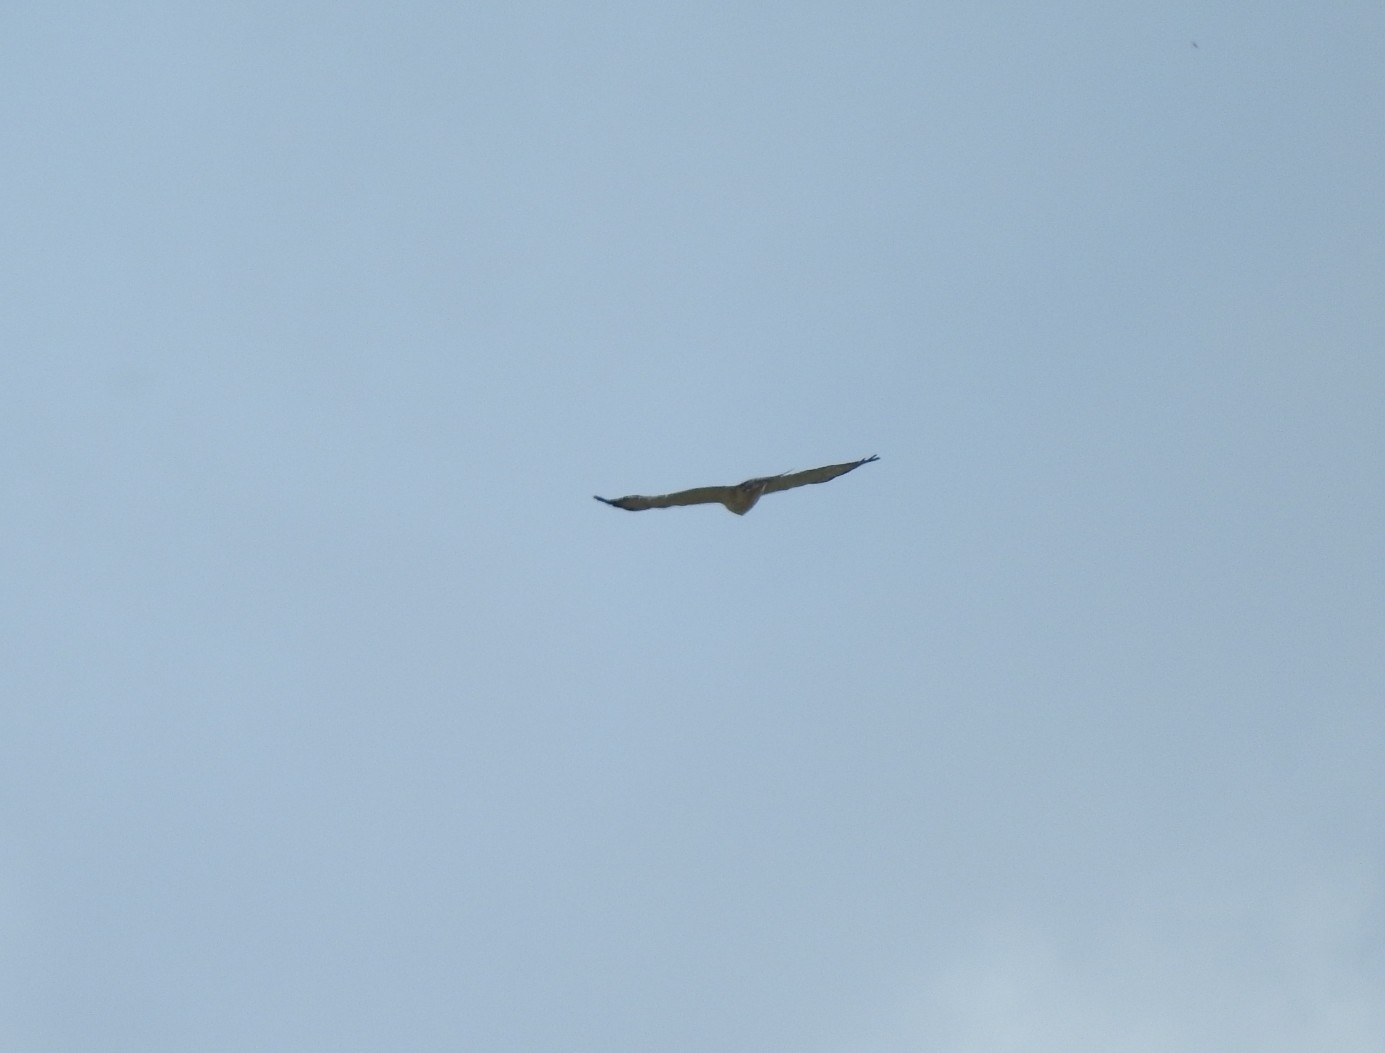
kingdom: Animalia
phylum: Chordata
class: Aves
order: Accipitriformes
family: Accipitridae
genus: Buteo
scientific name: Buteo brachyurus
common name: Short-tailed hawk
